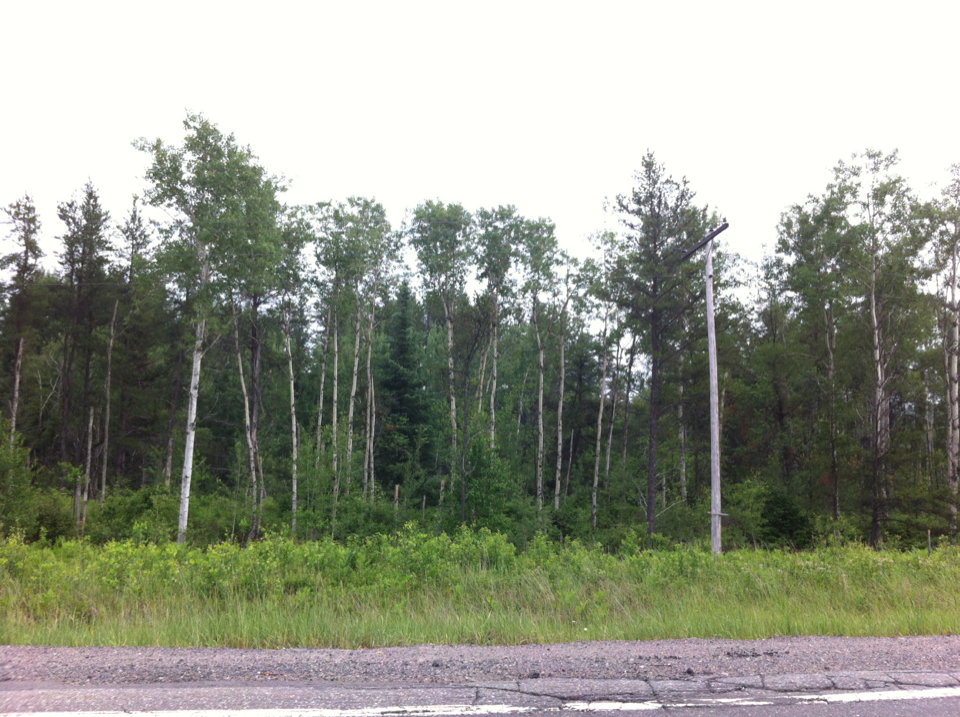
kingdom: Plantae
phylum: Tracheophyta
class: Magnoliopsida
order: Malpighiales
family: Salicaceae
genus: Populus
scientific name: Populus tremuloides
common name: Quaking aspen
